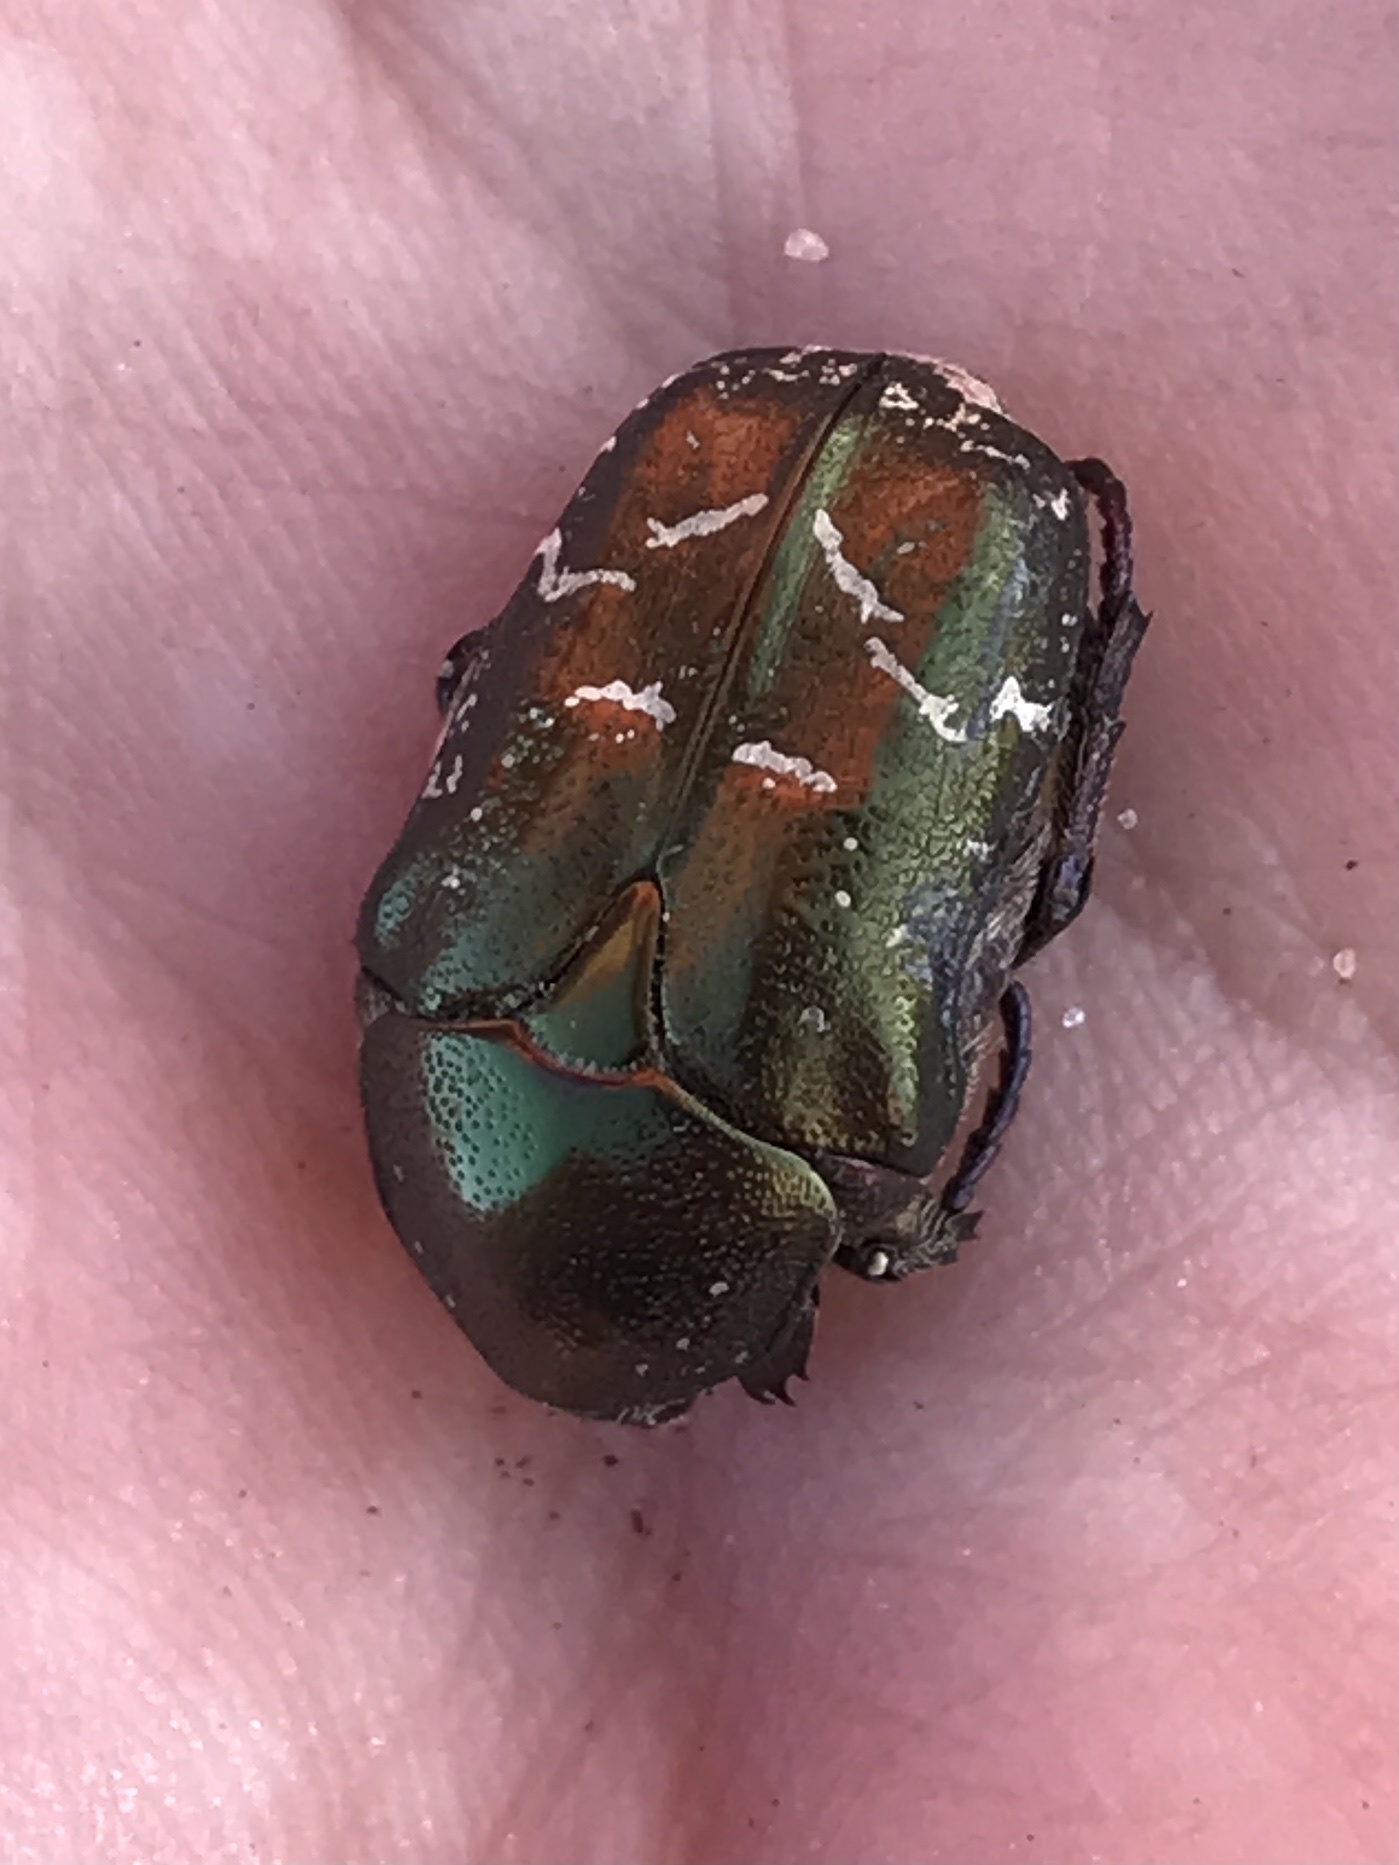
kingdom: Animalia
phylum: Arthropoda
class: Insecta
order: Coleoptera
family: Scarabaeidae
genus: Protaetia
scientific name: Protaetia cuprea
